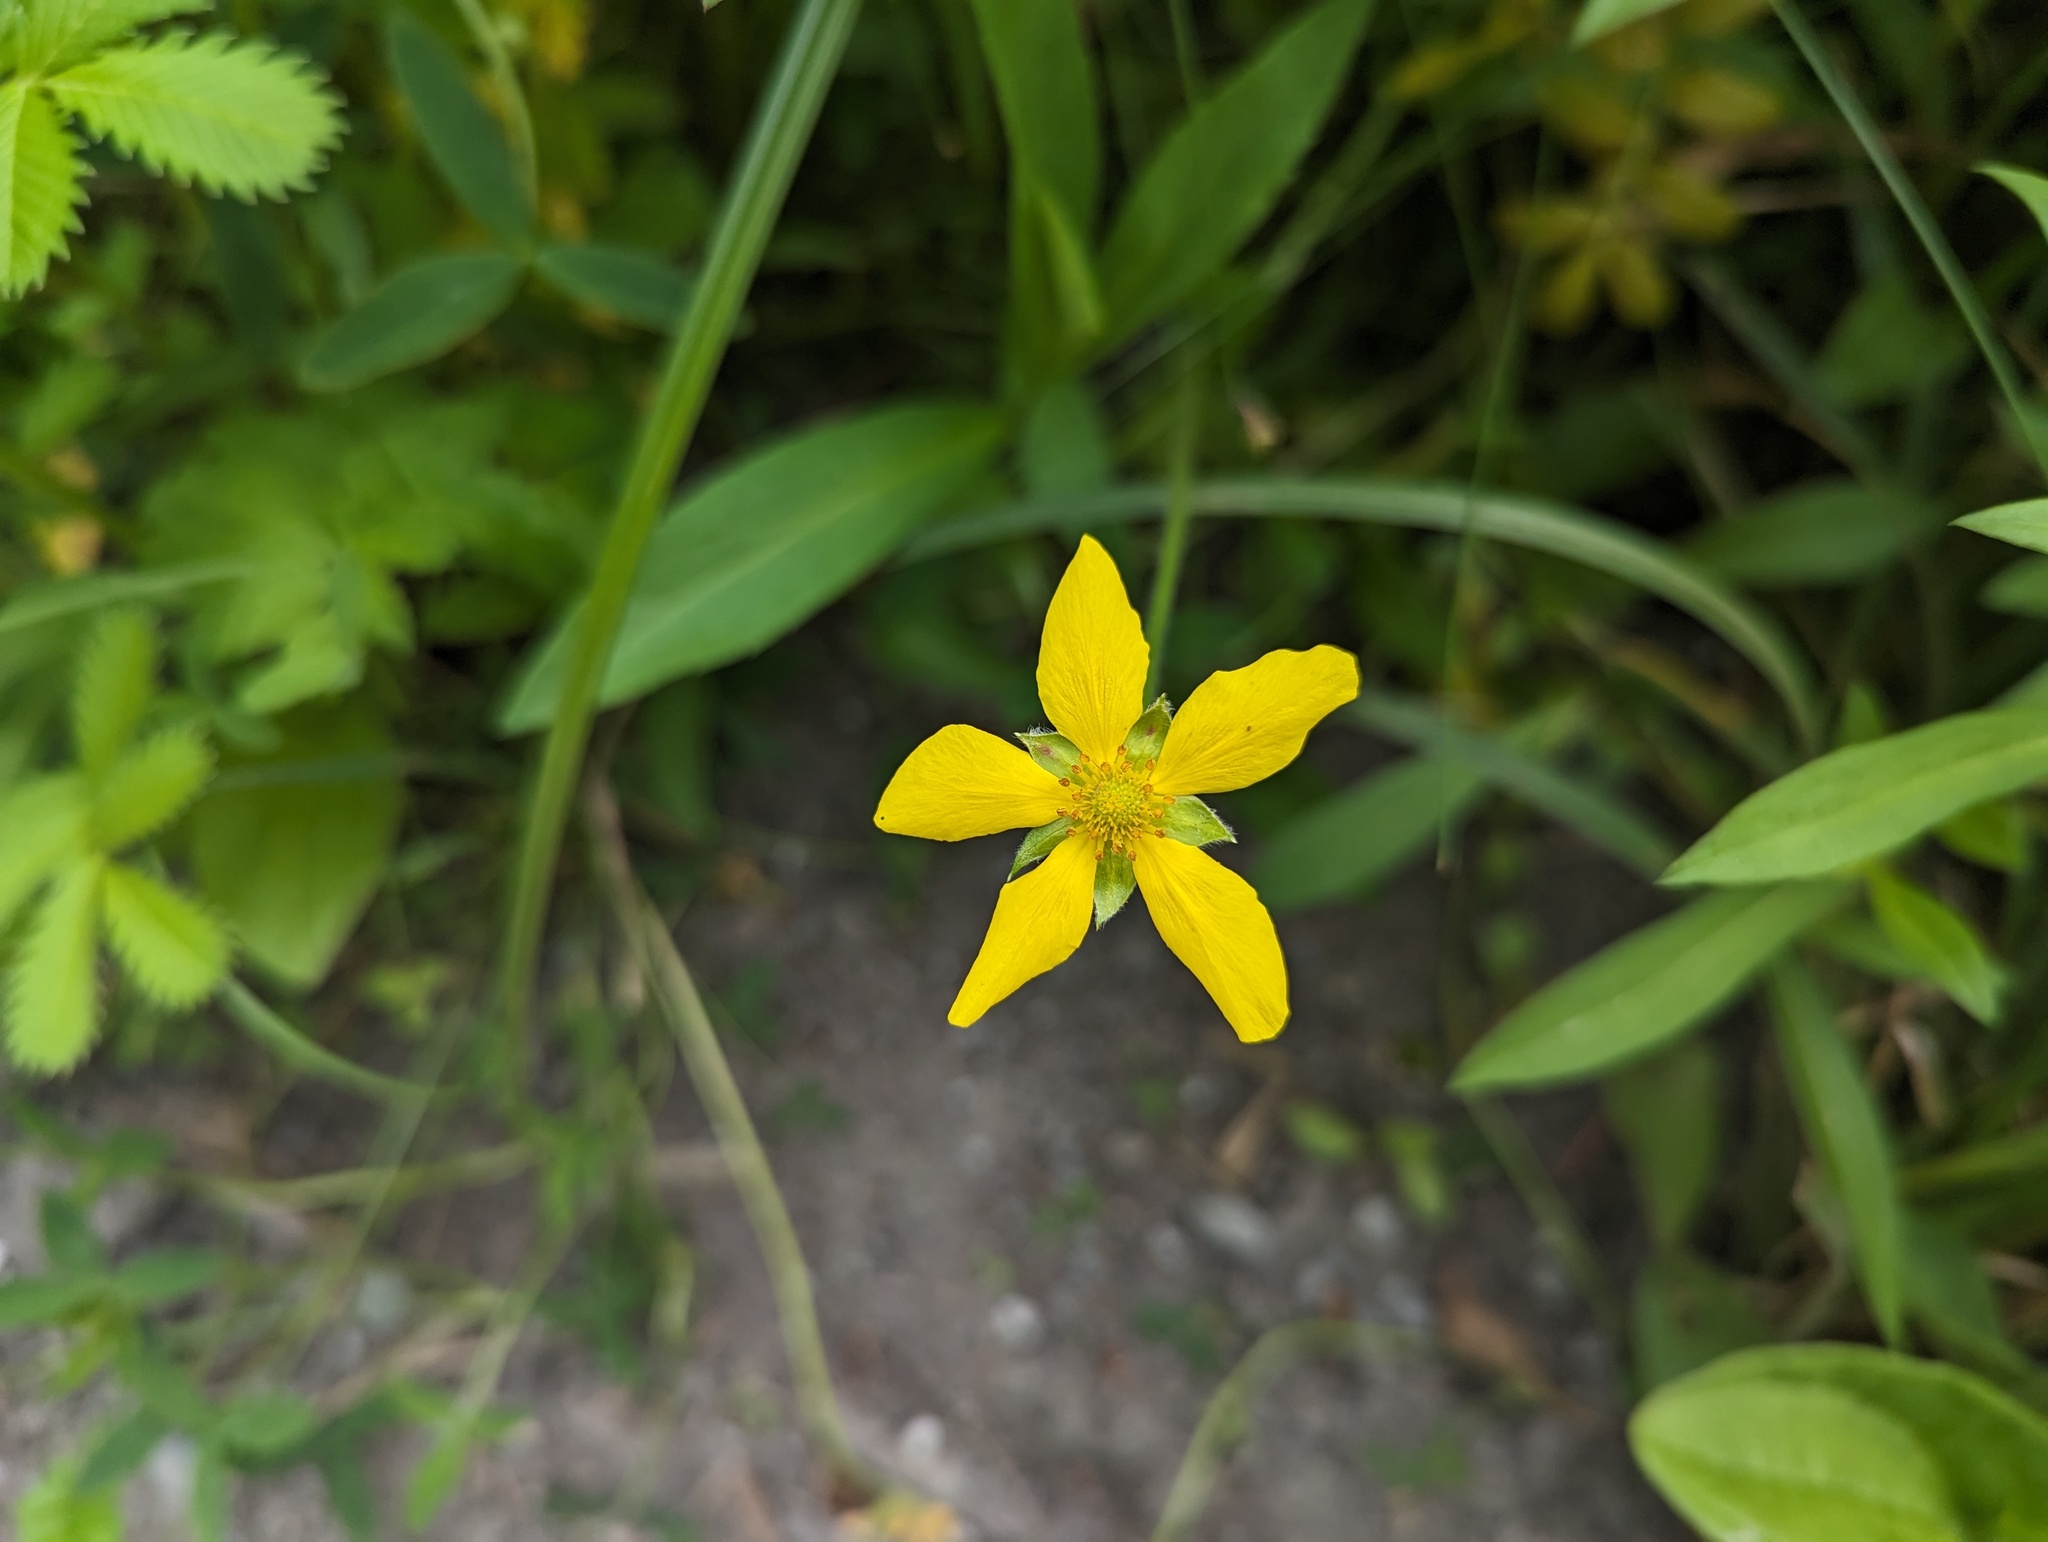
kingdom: Plantae
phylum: Tracheophyta
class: Magnoliopsida
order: Rosales
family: Rosaceae
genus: Argentina
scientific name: Argentina anserina
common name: Common silverweed
